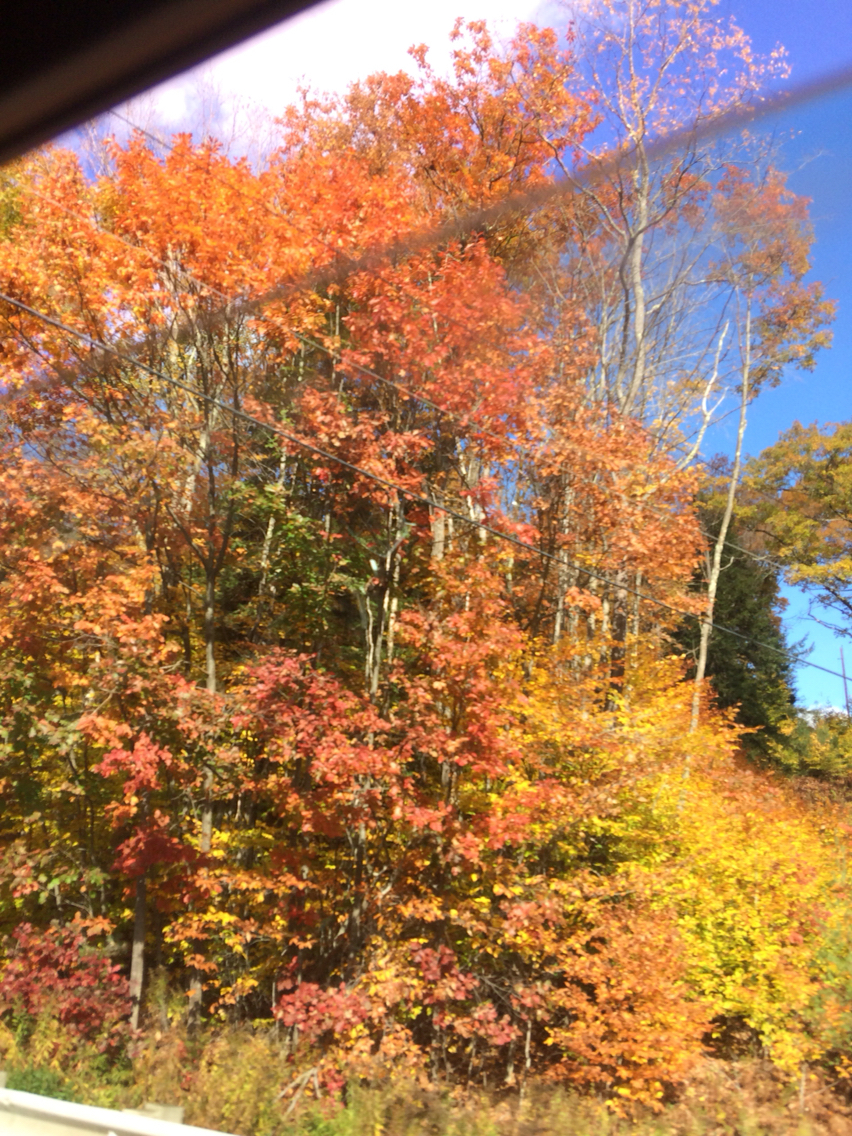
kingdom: Plantae
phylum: Tracheophyta
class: Magnoliopsida
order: Fagales
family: Fagaceae
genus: Quercus
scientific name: Quercus rubra
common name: Red oak
